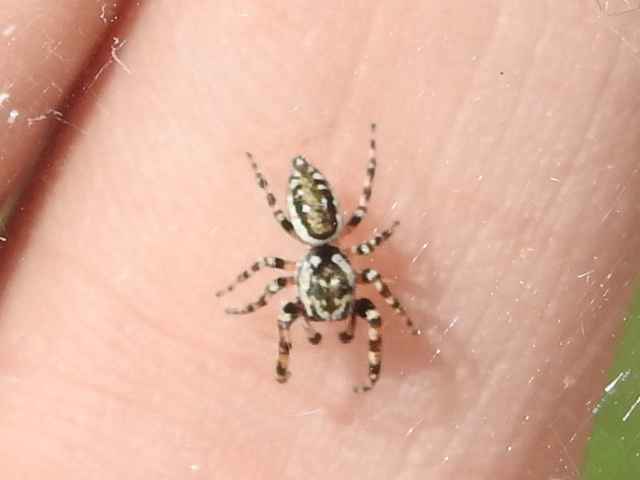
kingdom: Animalia
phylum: Arthropoda
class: Arachnida
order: Araneae
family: Salticidae
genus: Pelegrina
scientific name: Pelegrina galathea
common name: Jumping spiders
